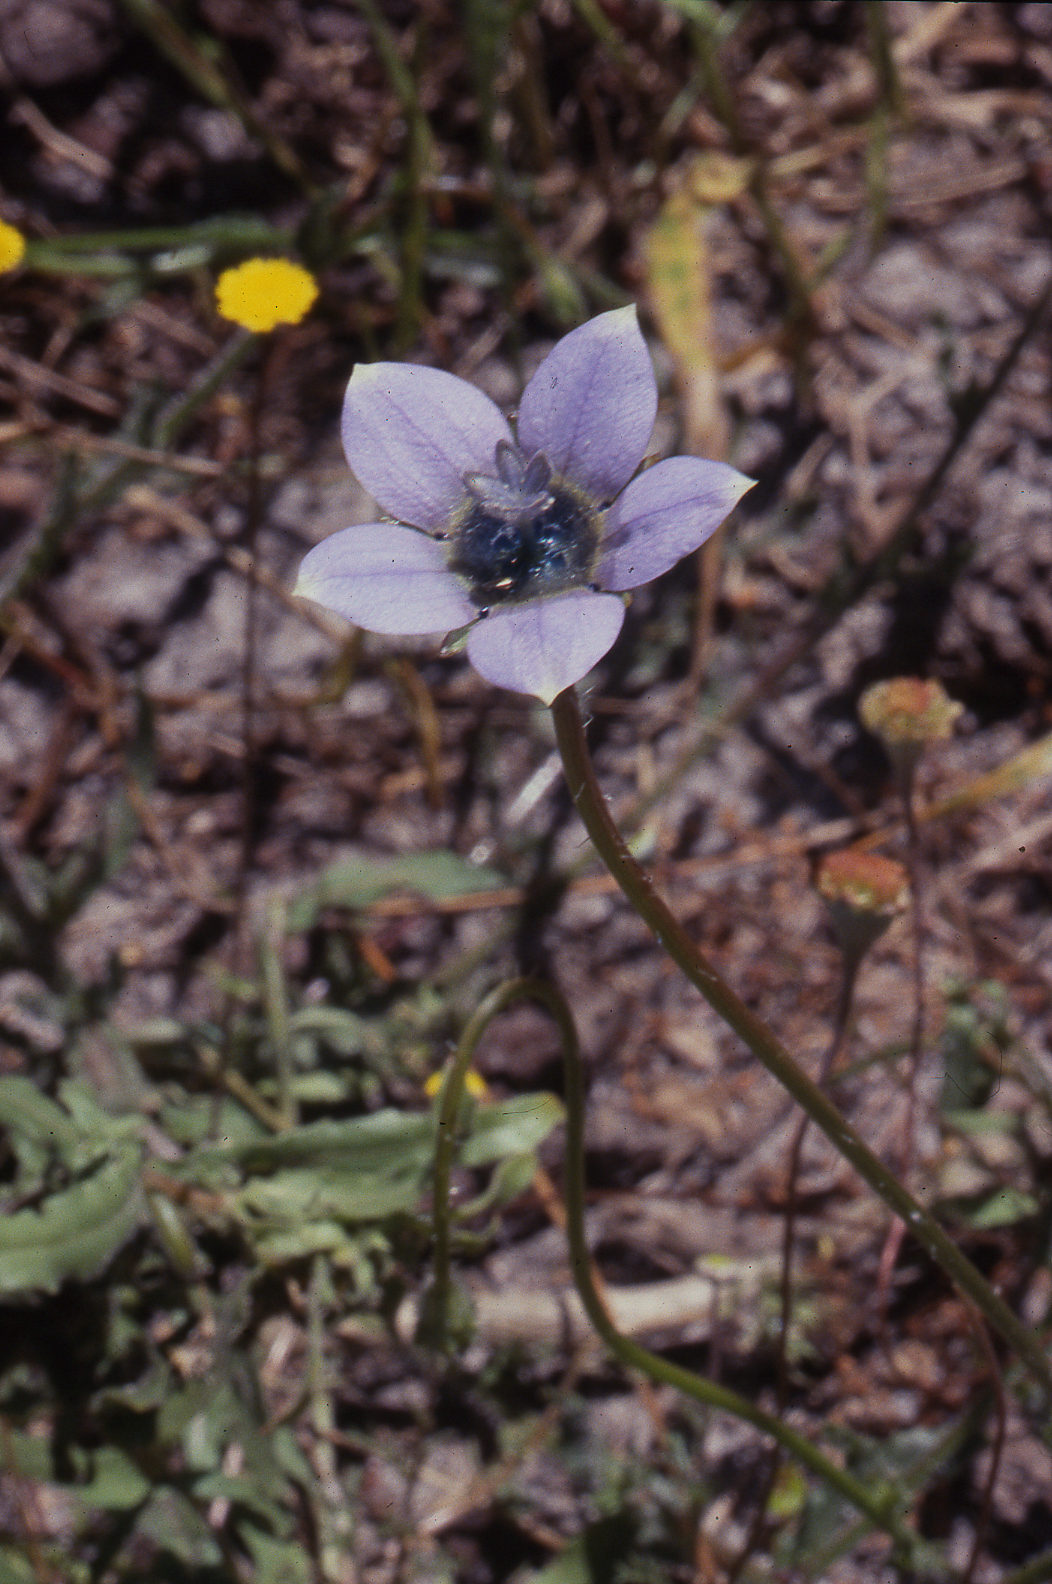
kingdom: Plantae
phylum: Tracheophyta
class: Magnoliopsida
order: Asterales
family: Campanulaceae
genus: Wahlenbergia
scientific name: Wahlenbergia capensis
